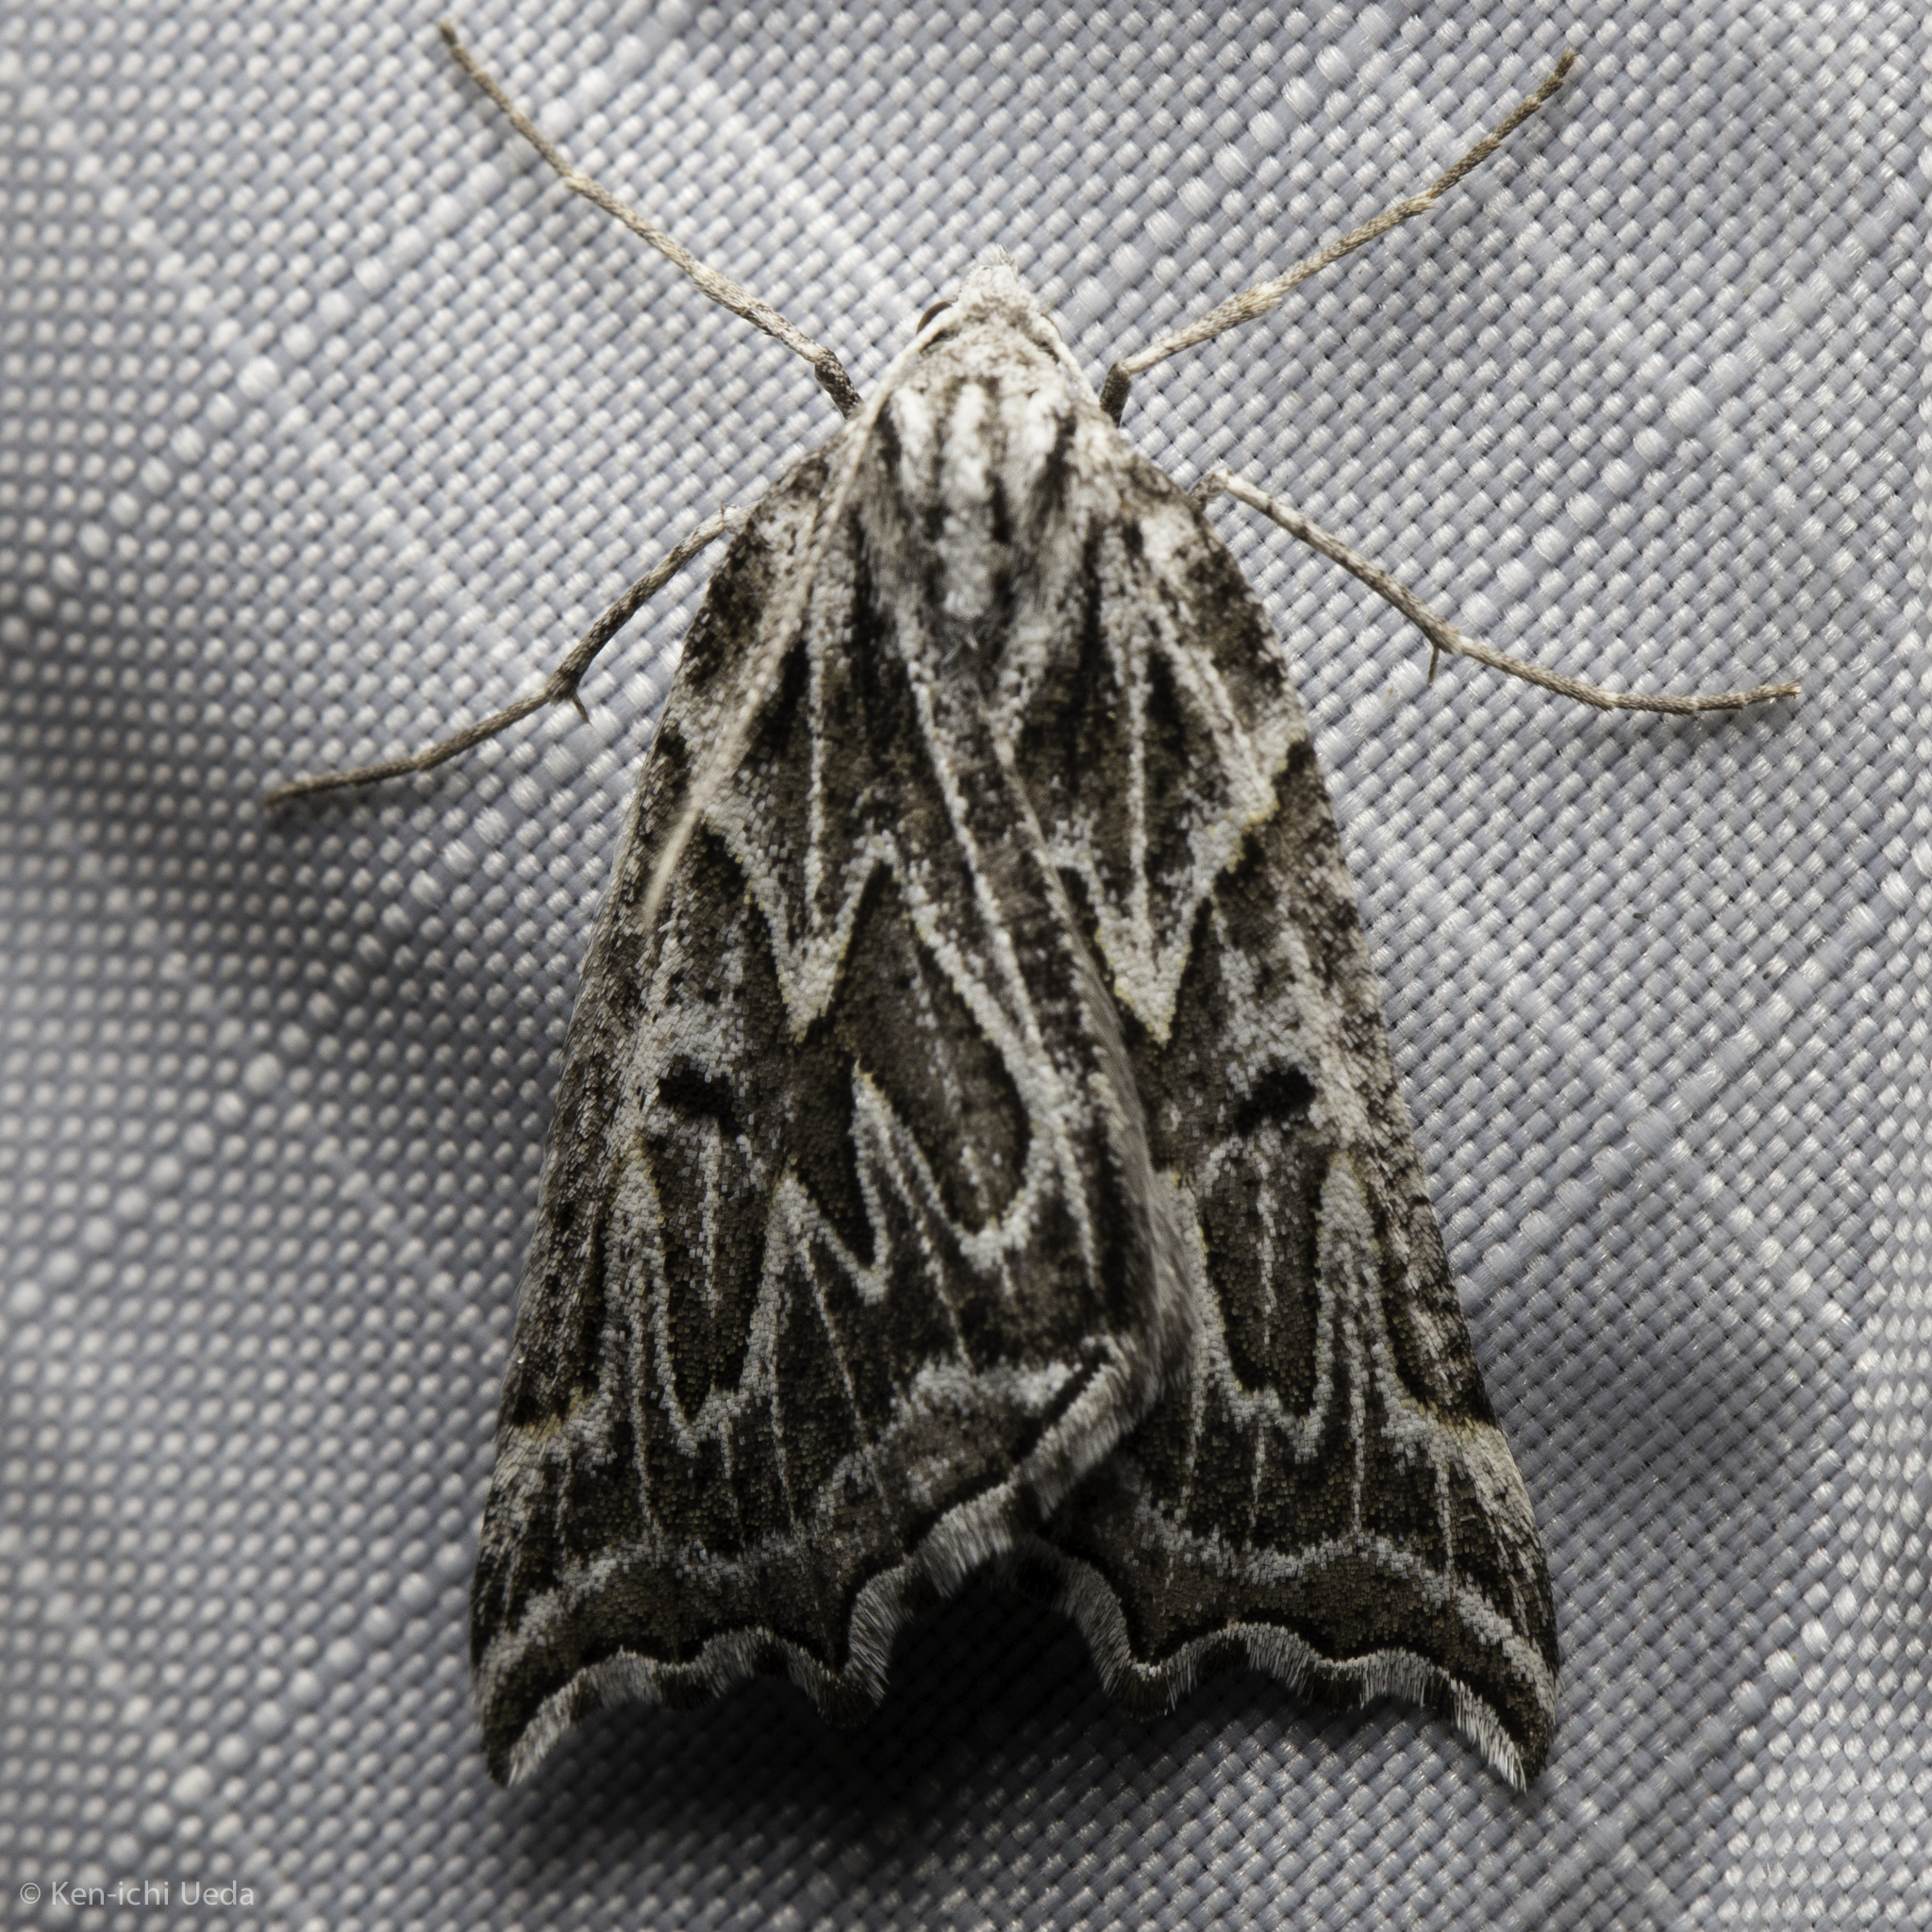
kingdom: Animalia
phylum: Arthropoda
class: Insecta
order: Lepidoptera
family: Geometridae
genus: Plataea
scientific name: Plataea californiaria
